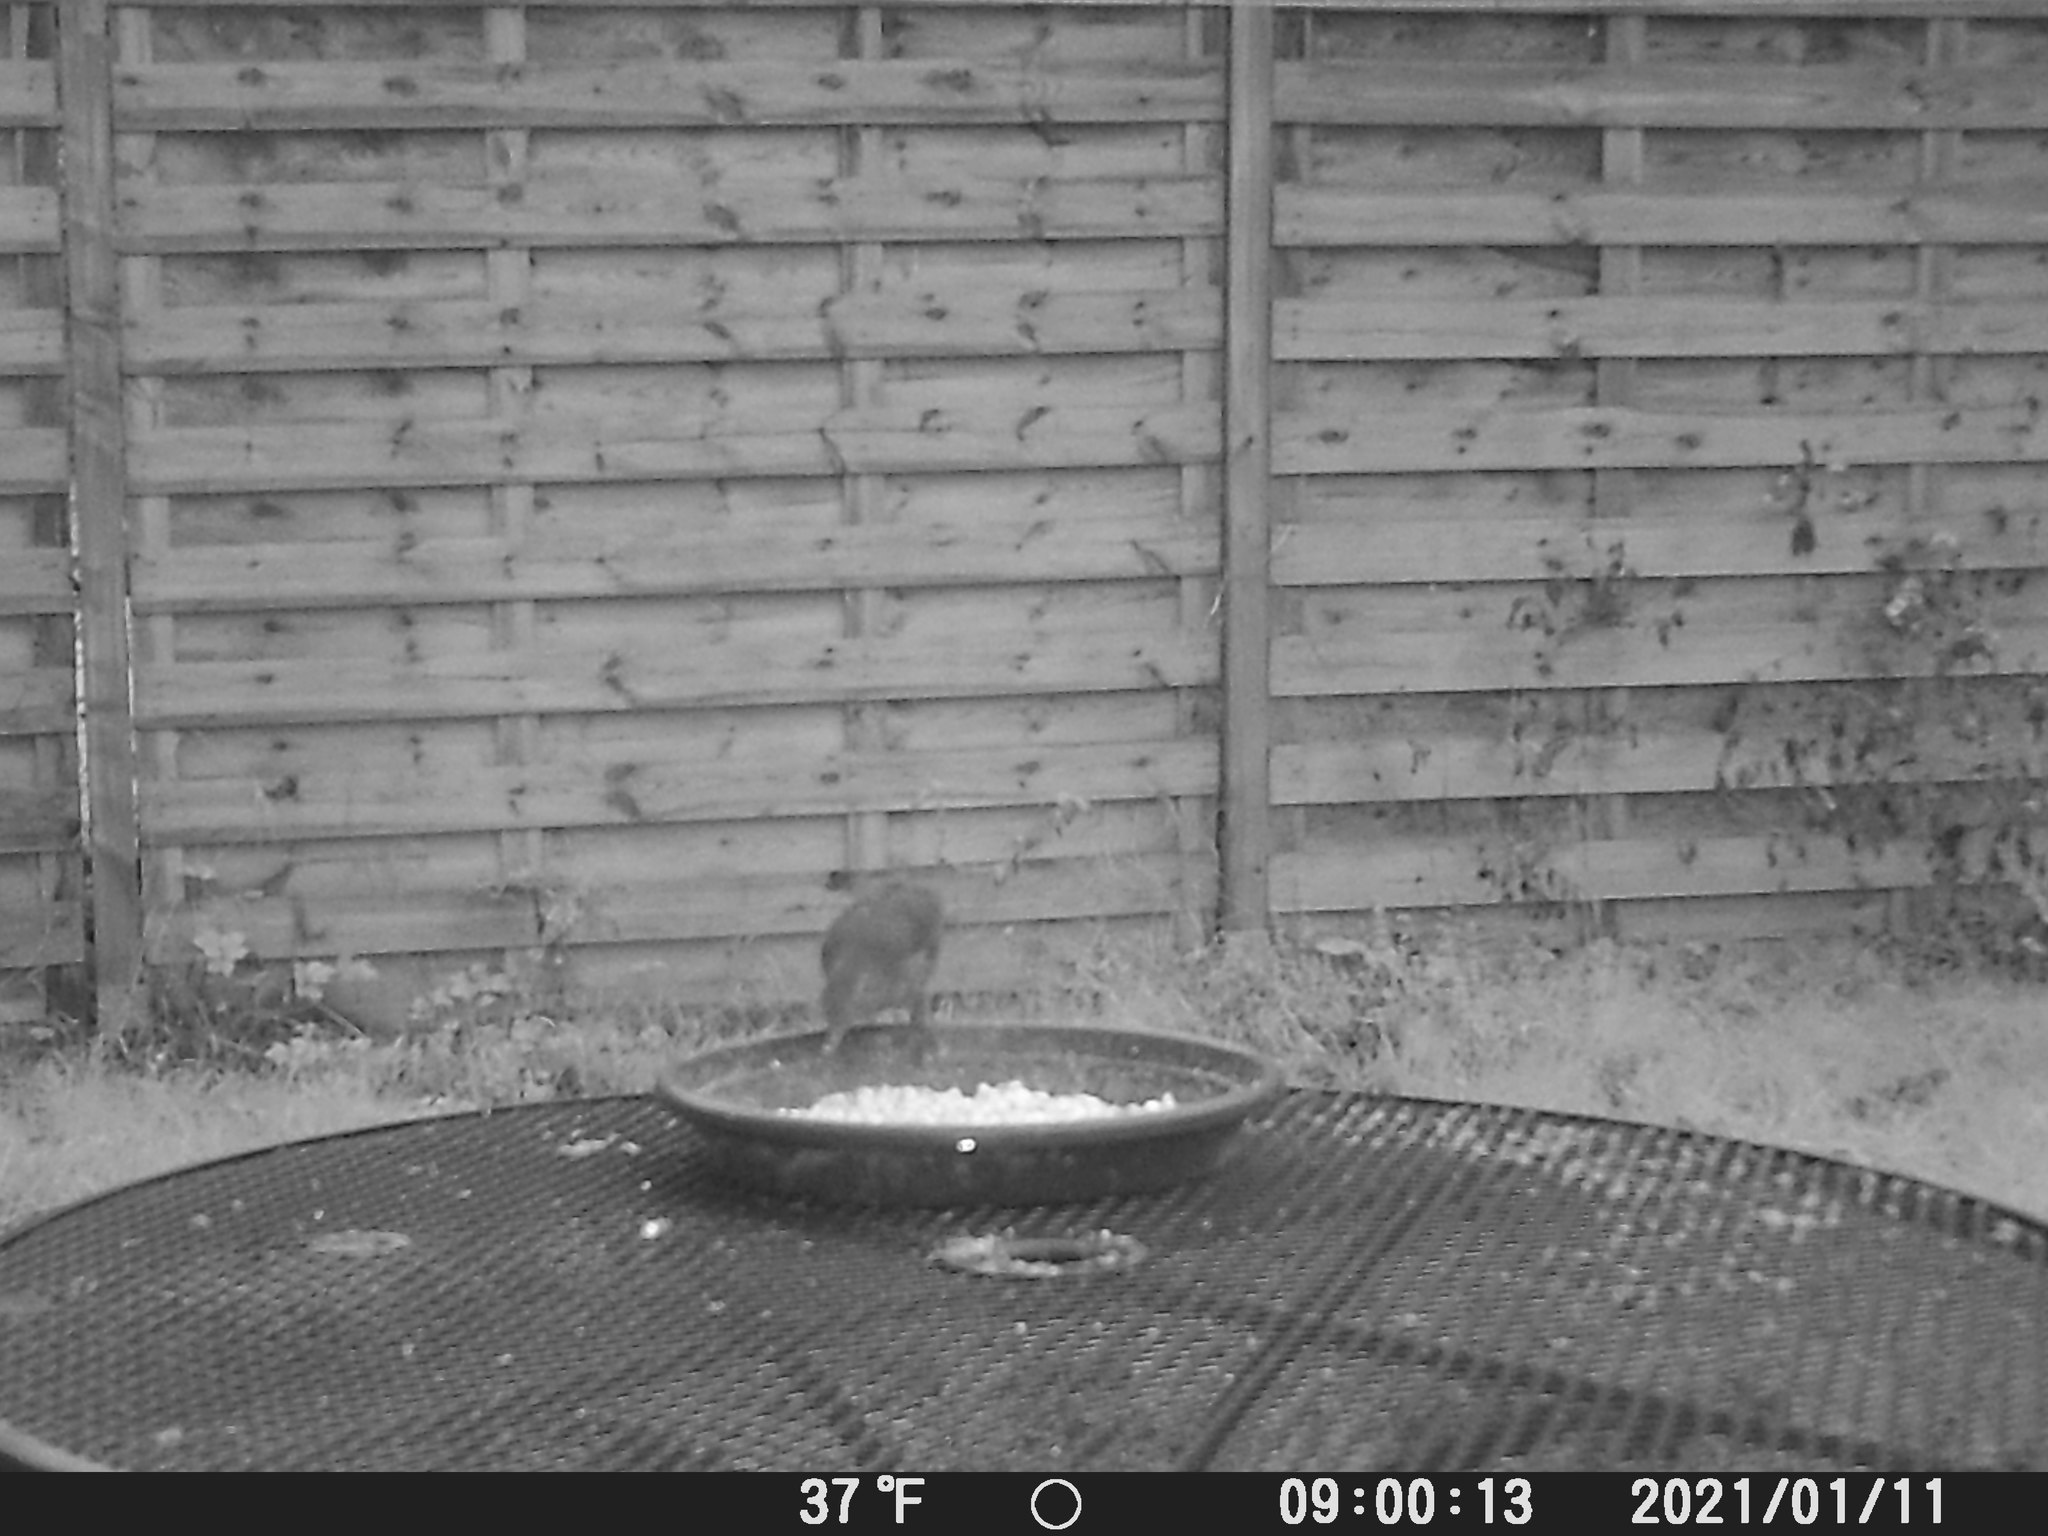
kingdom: Animalia
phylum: Chordata
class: Aves
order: Passeriformes
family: Turdidae
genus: Turdus
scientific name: Turdus merula
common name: Common blackbird
